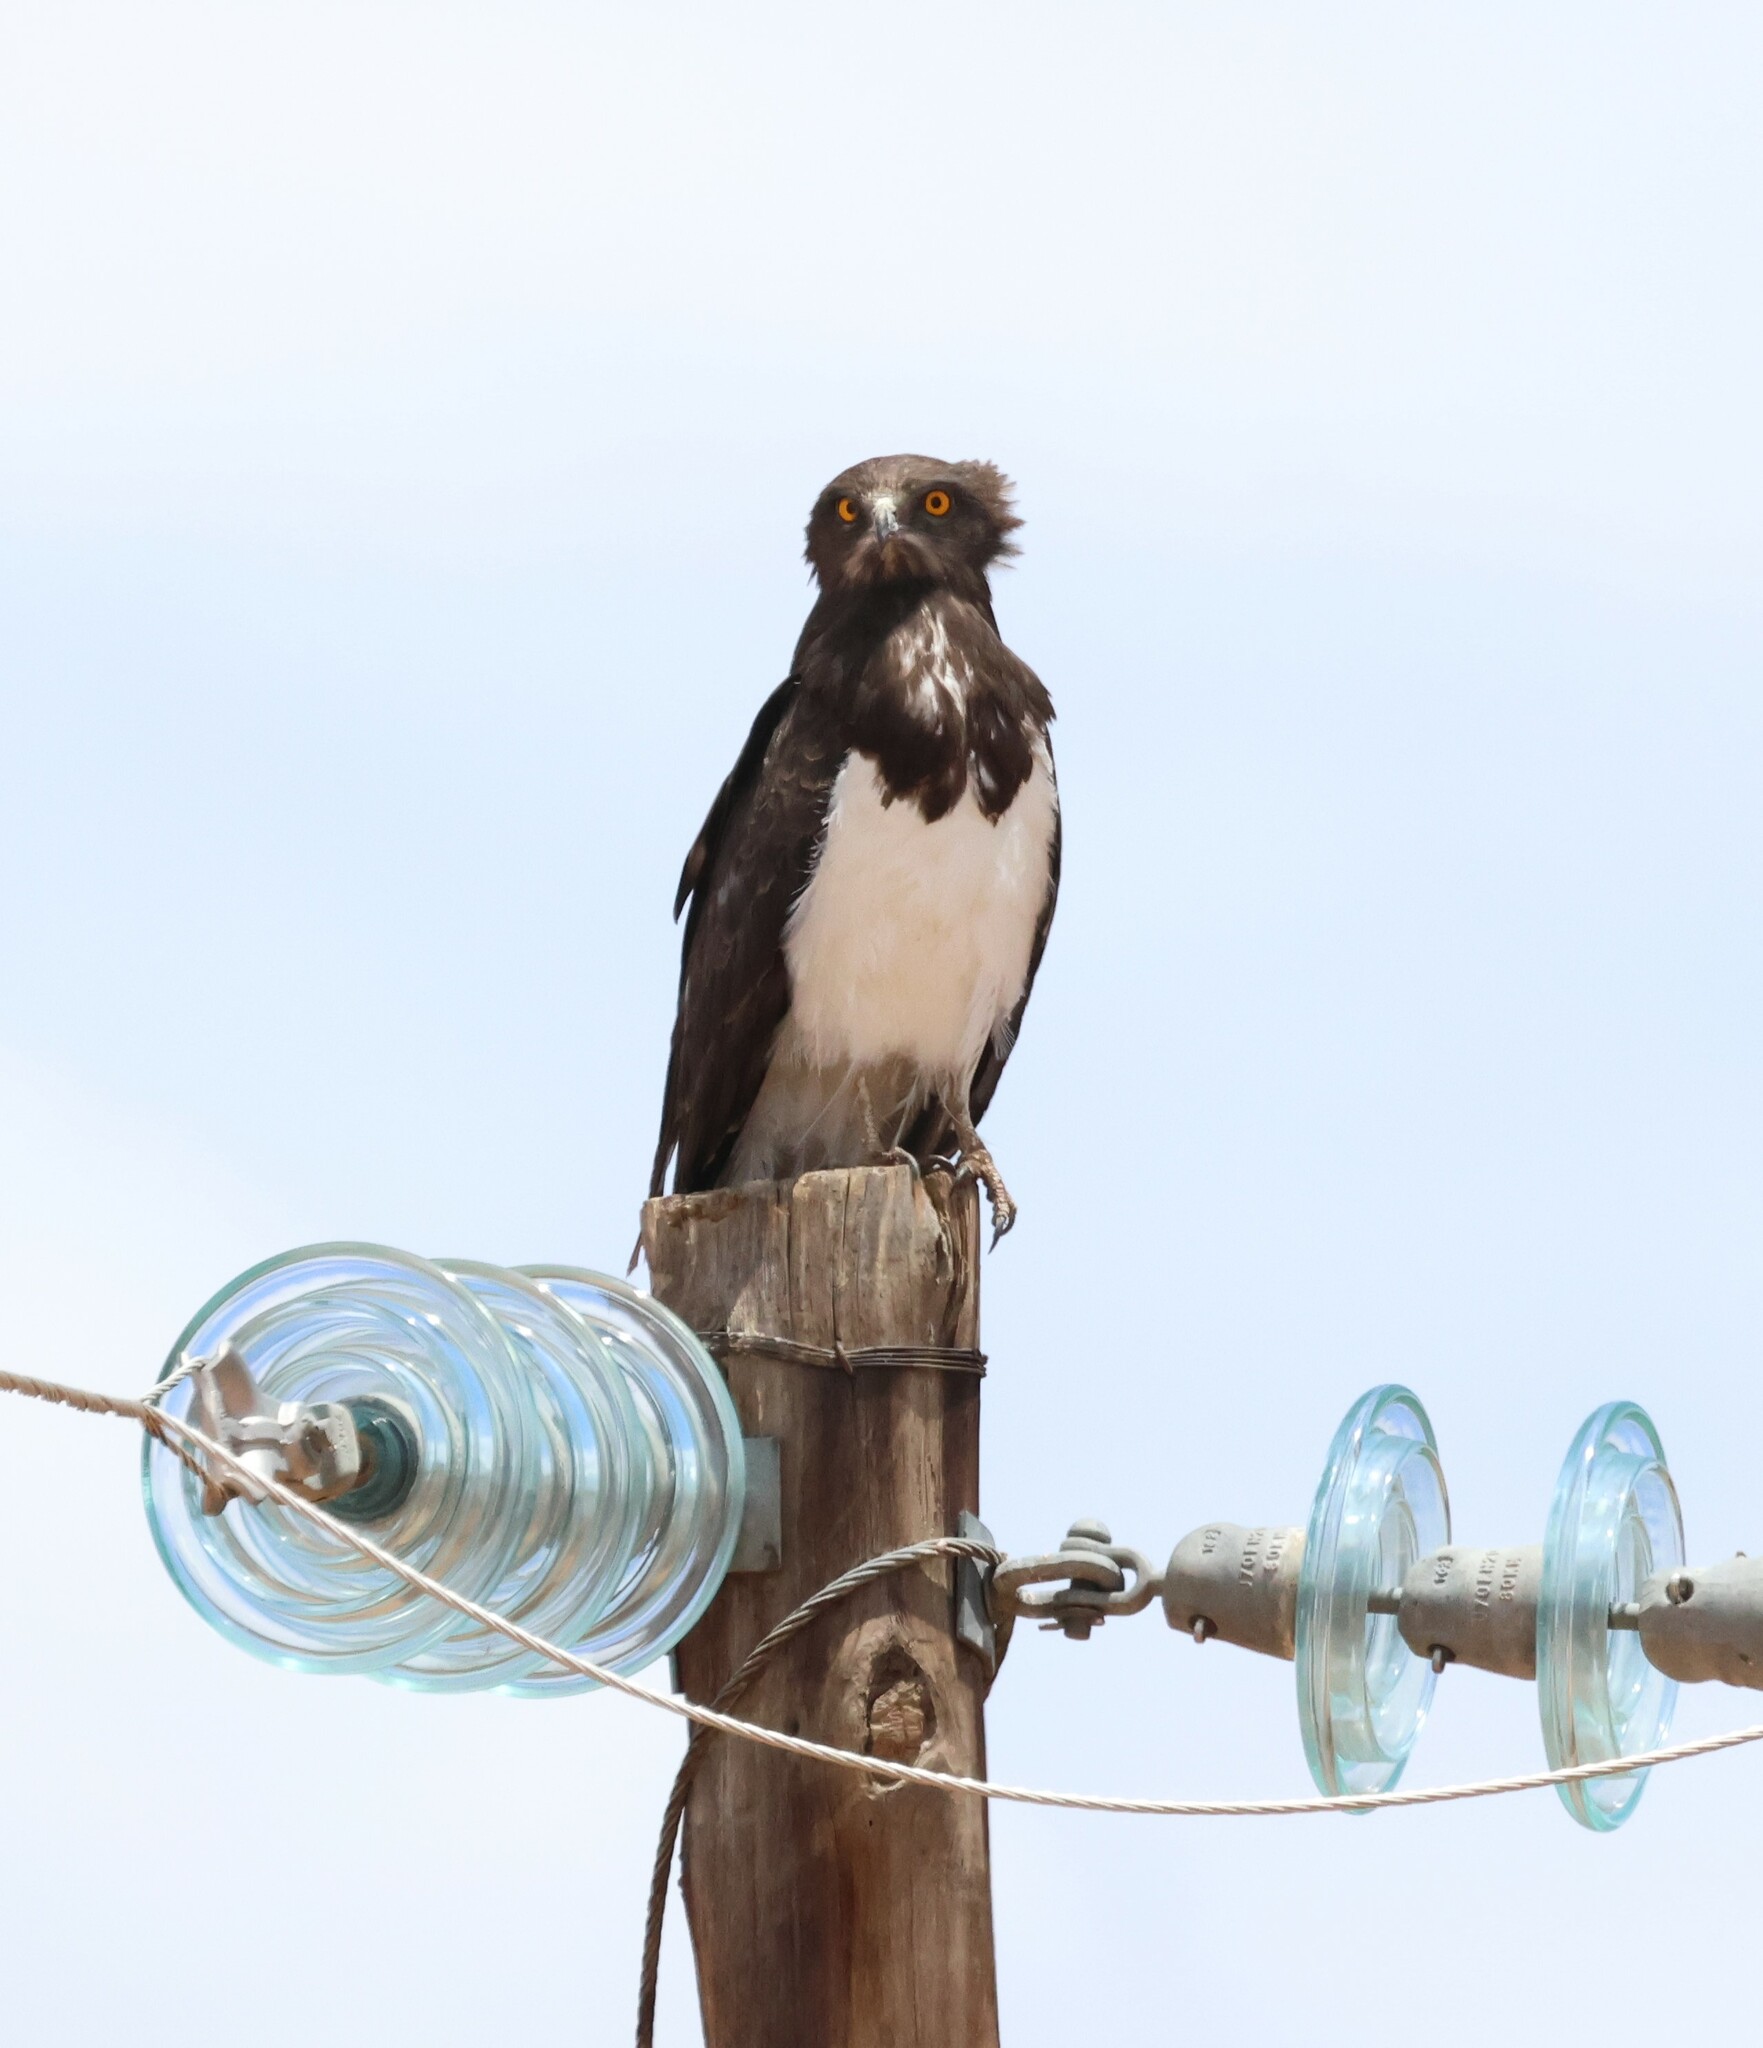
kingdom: Animalia
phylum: Chordata
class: Aves
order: Accipitriformes
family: Accipitridae
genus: Circaetus
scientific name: Circaetus pectoralis
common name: Black-chested snake eagle
